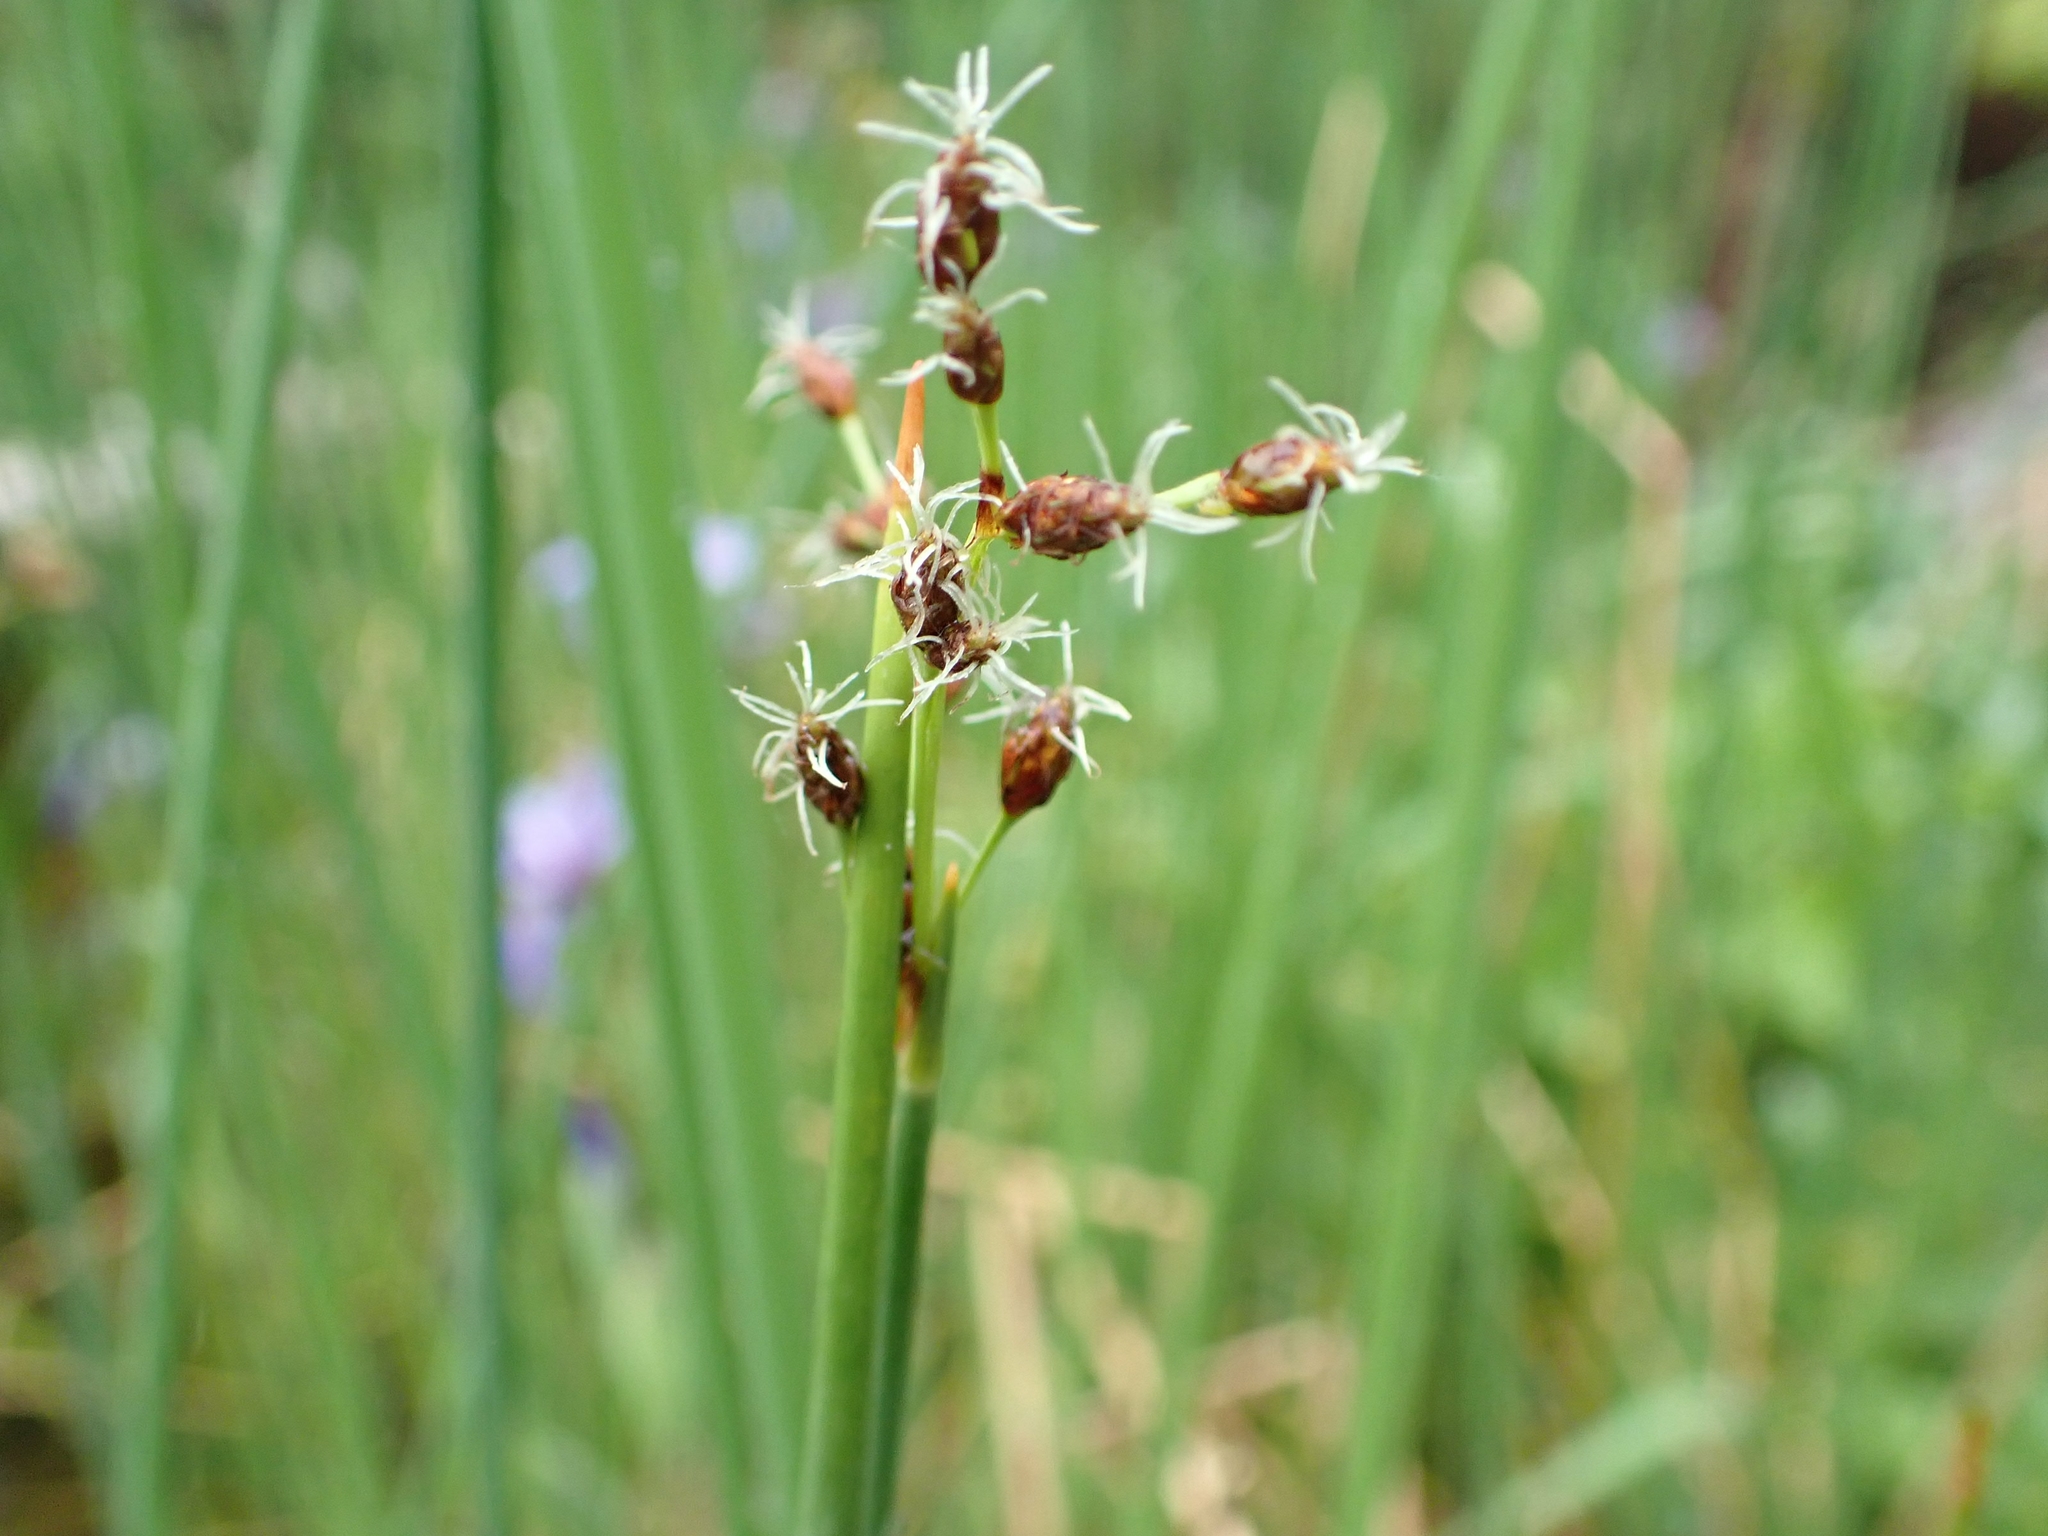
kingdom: Plantae
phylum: Tracheophyta
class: Liliopsida
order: Poales
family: Cyperaceae
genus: Schoenoplectus
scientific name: Schoenoplectus tabernaemontani
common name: Grey club-rush
